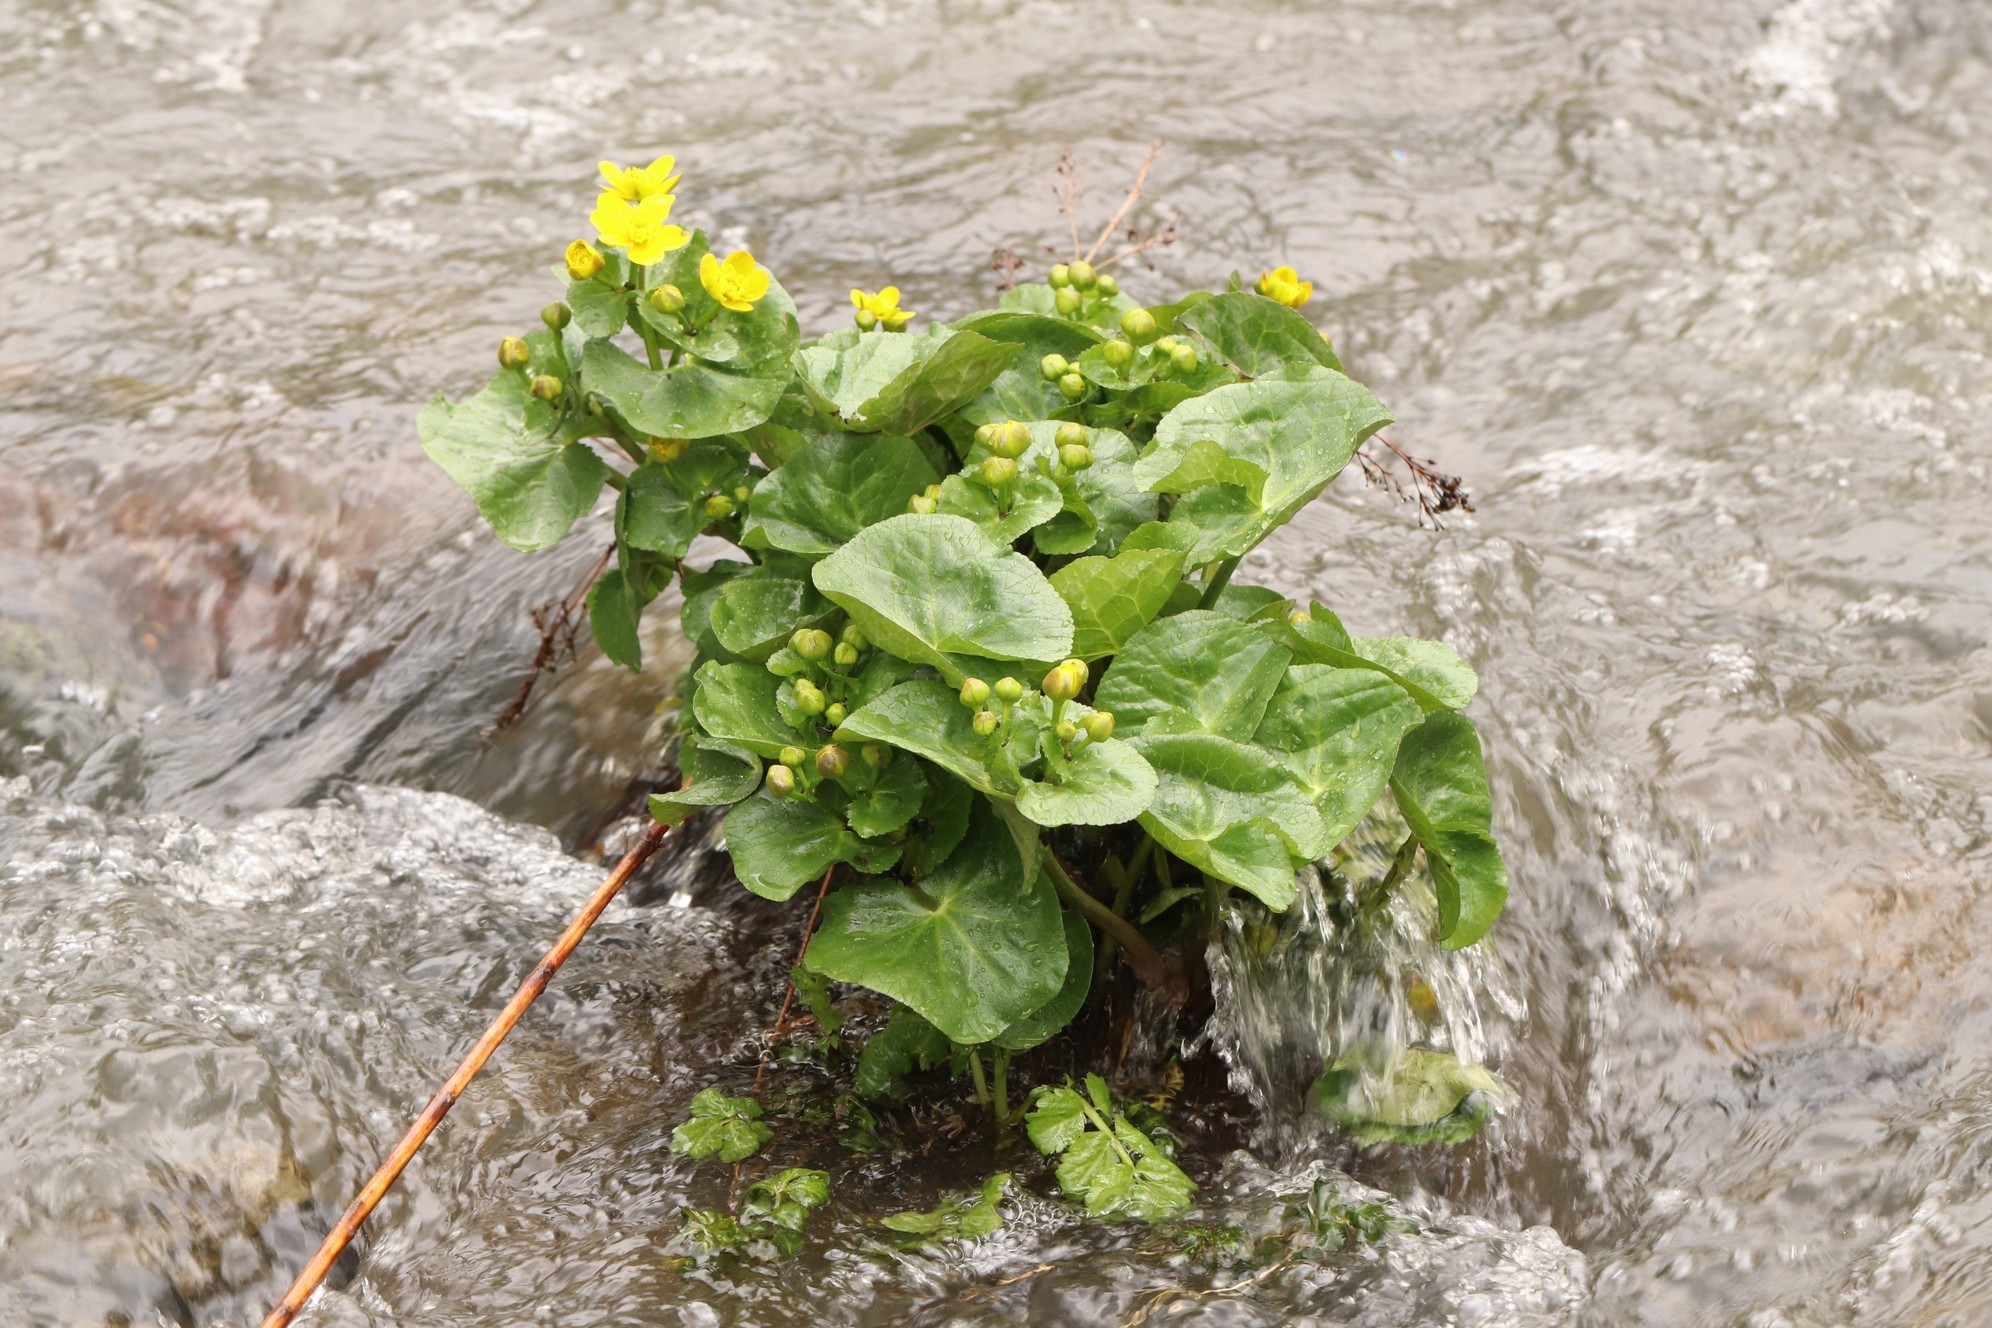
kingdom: Plantae
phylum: Tracheophyta
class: Magnoliopsida
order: Ranunculales
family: Ranunculaceae
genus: Caltha
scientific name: Caltha palustris
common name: Marsh marigold
